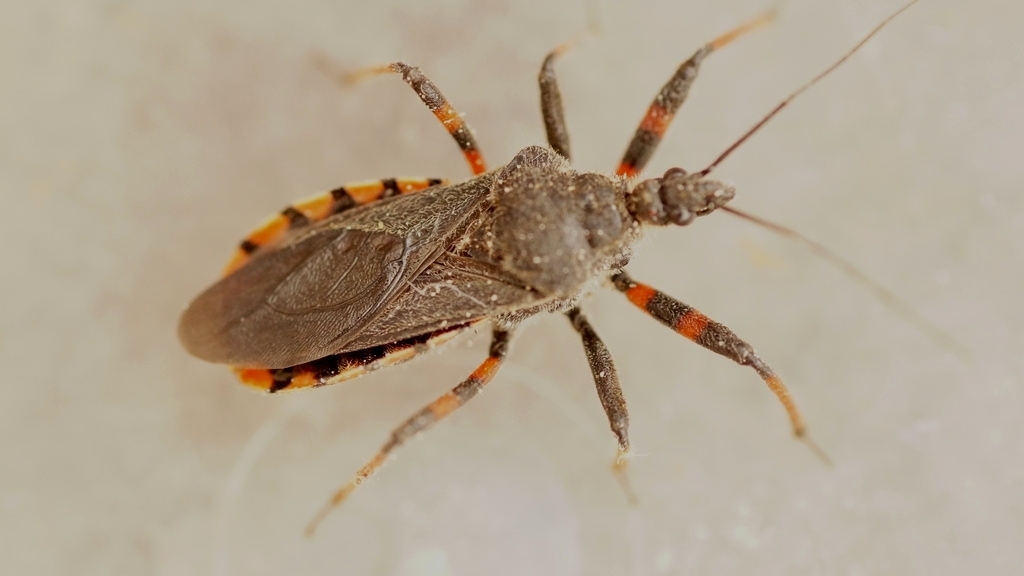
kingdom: Animalia
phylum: Arthropoda
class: Insecta
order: Hemiptera
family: Reduviidae
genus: Rhynocoris
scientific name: Rhynocoris annulatus
